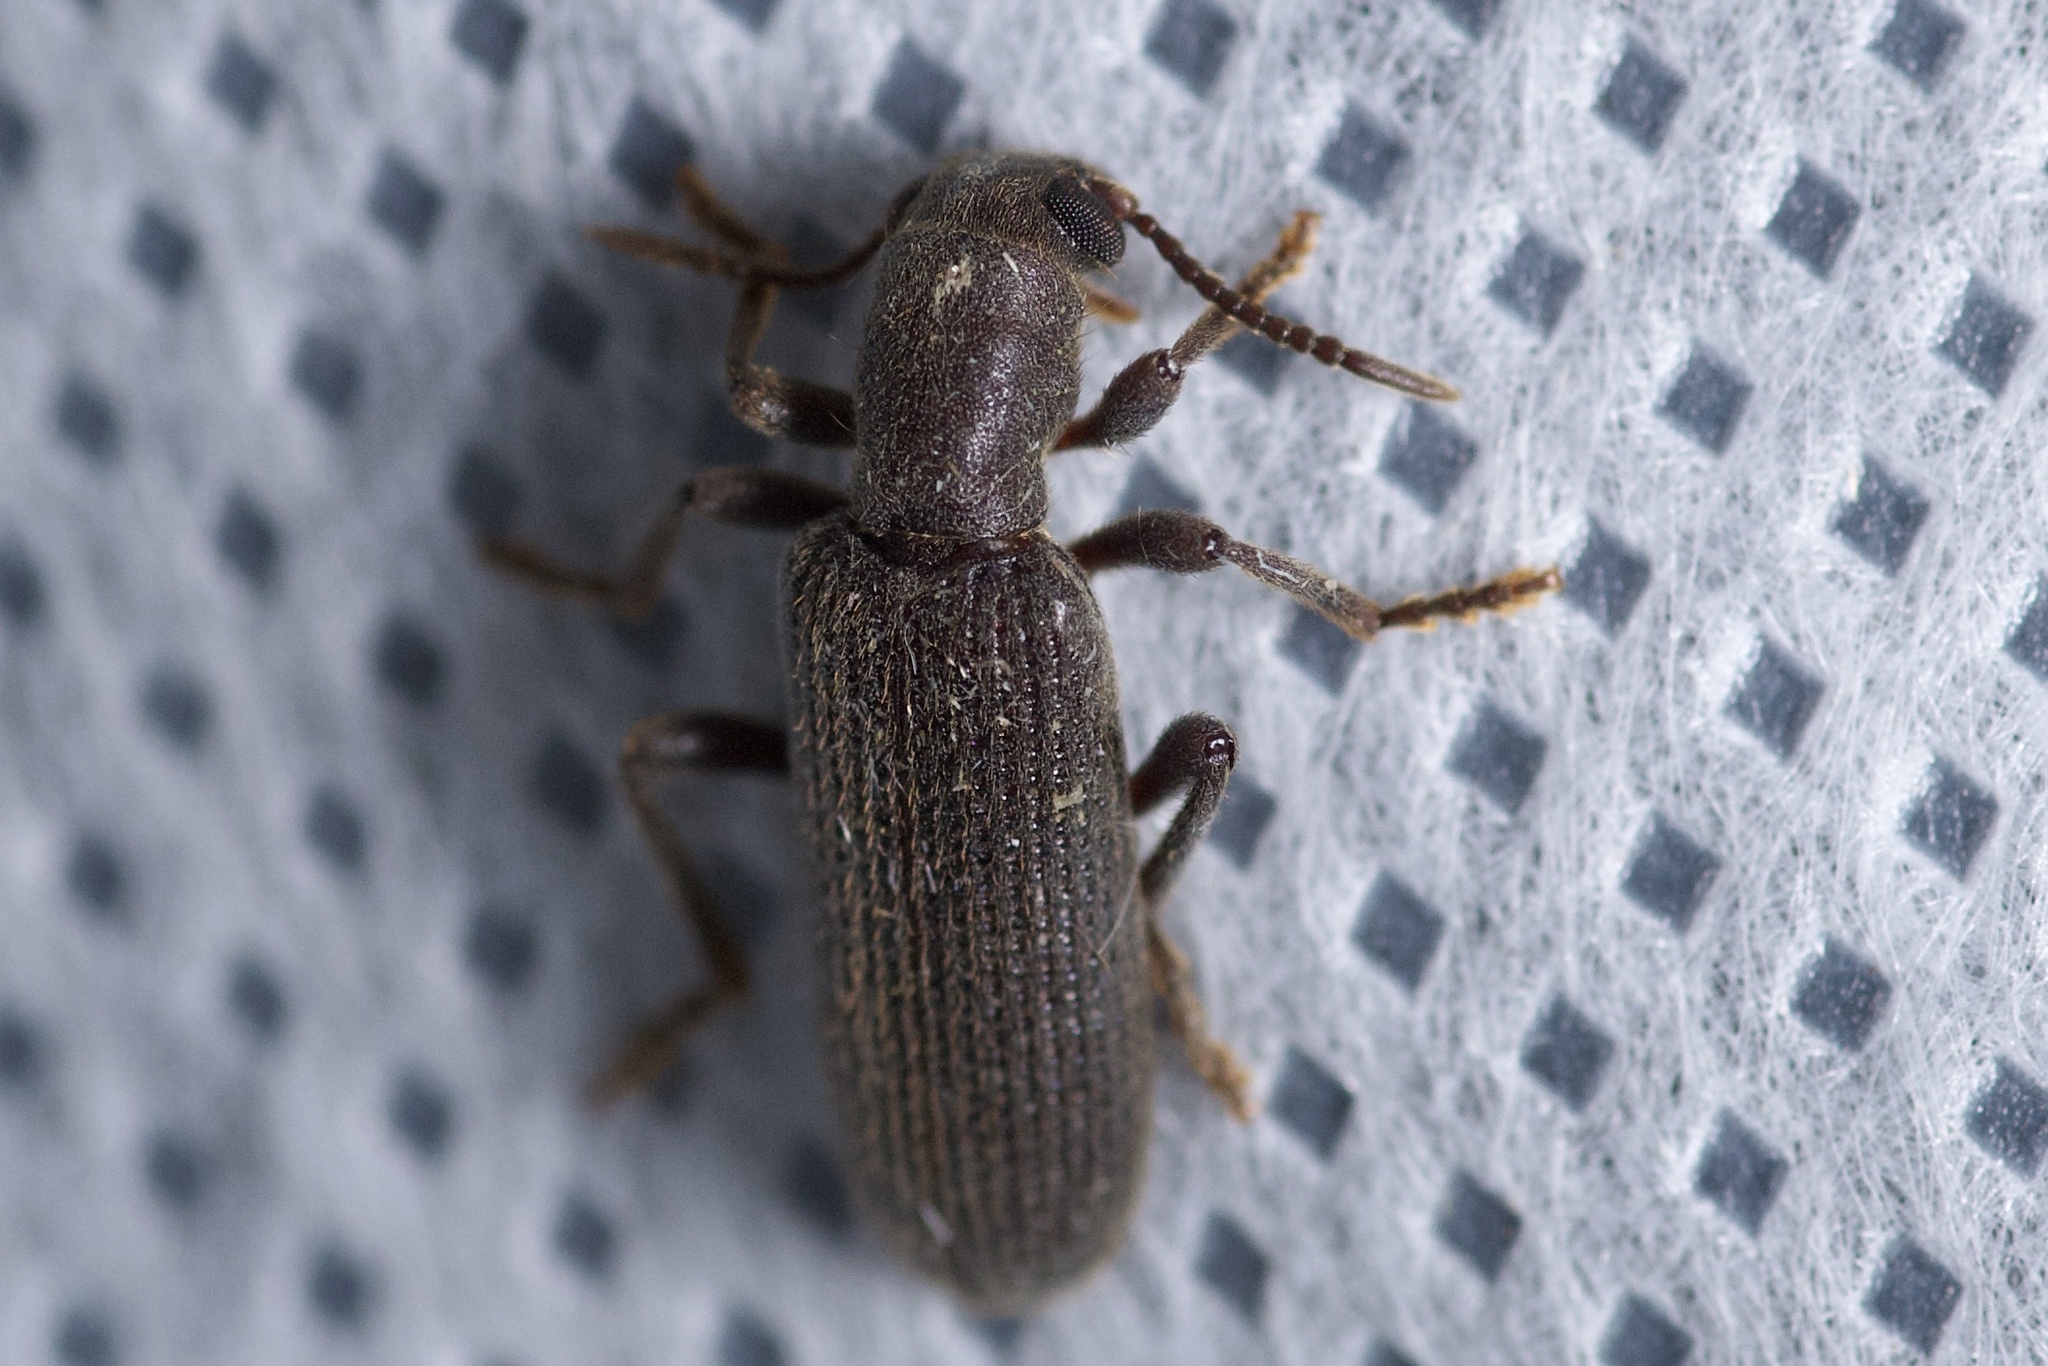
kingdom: Animalia
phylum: Arthropoda
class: Insecta
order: Coleoptera
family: Cleridae
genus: Lecontella
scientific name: Lecontella brunnea
